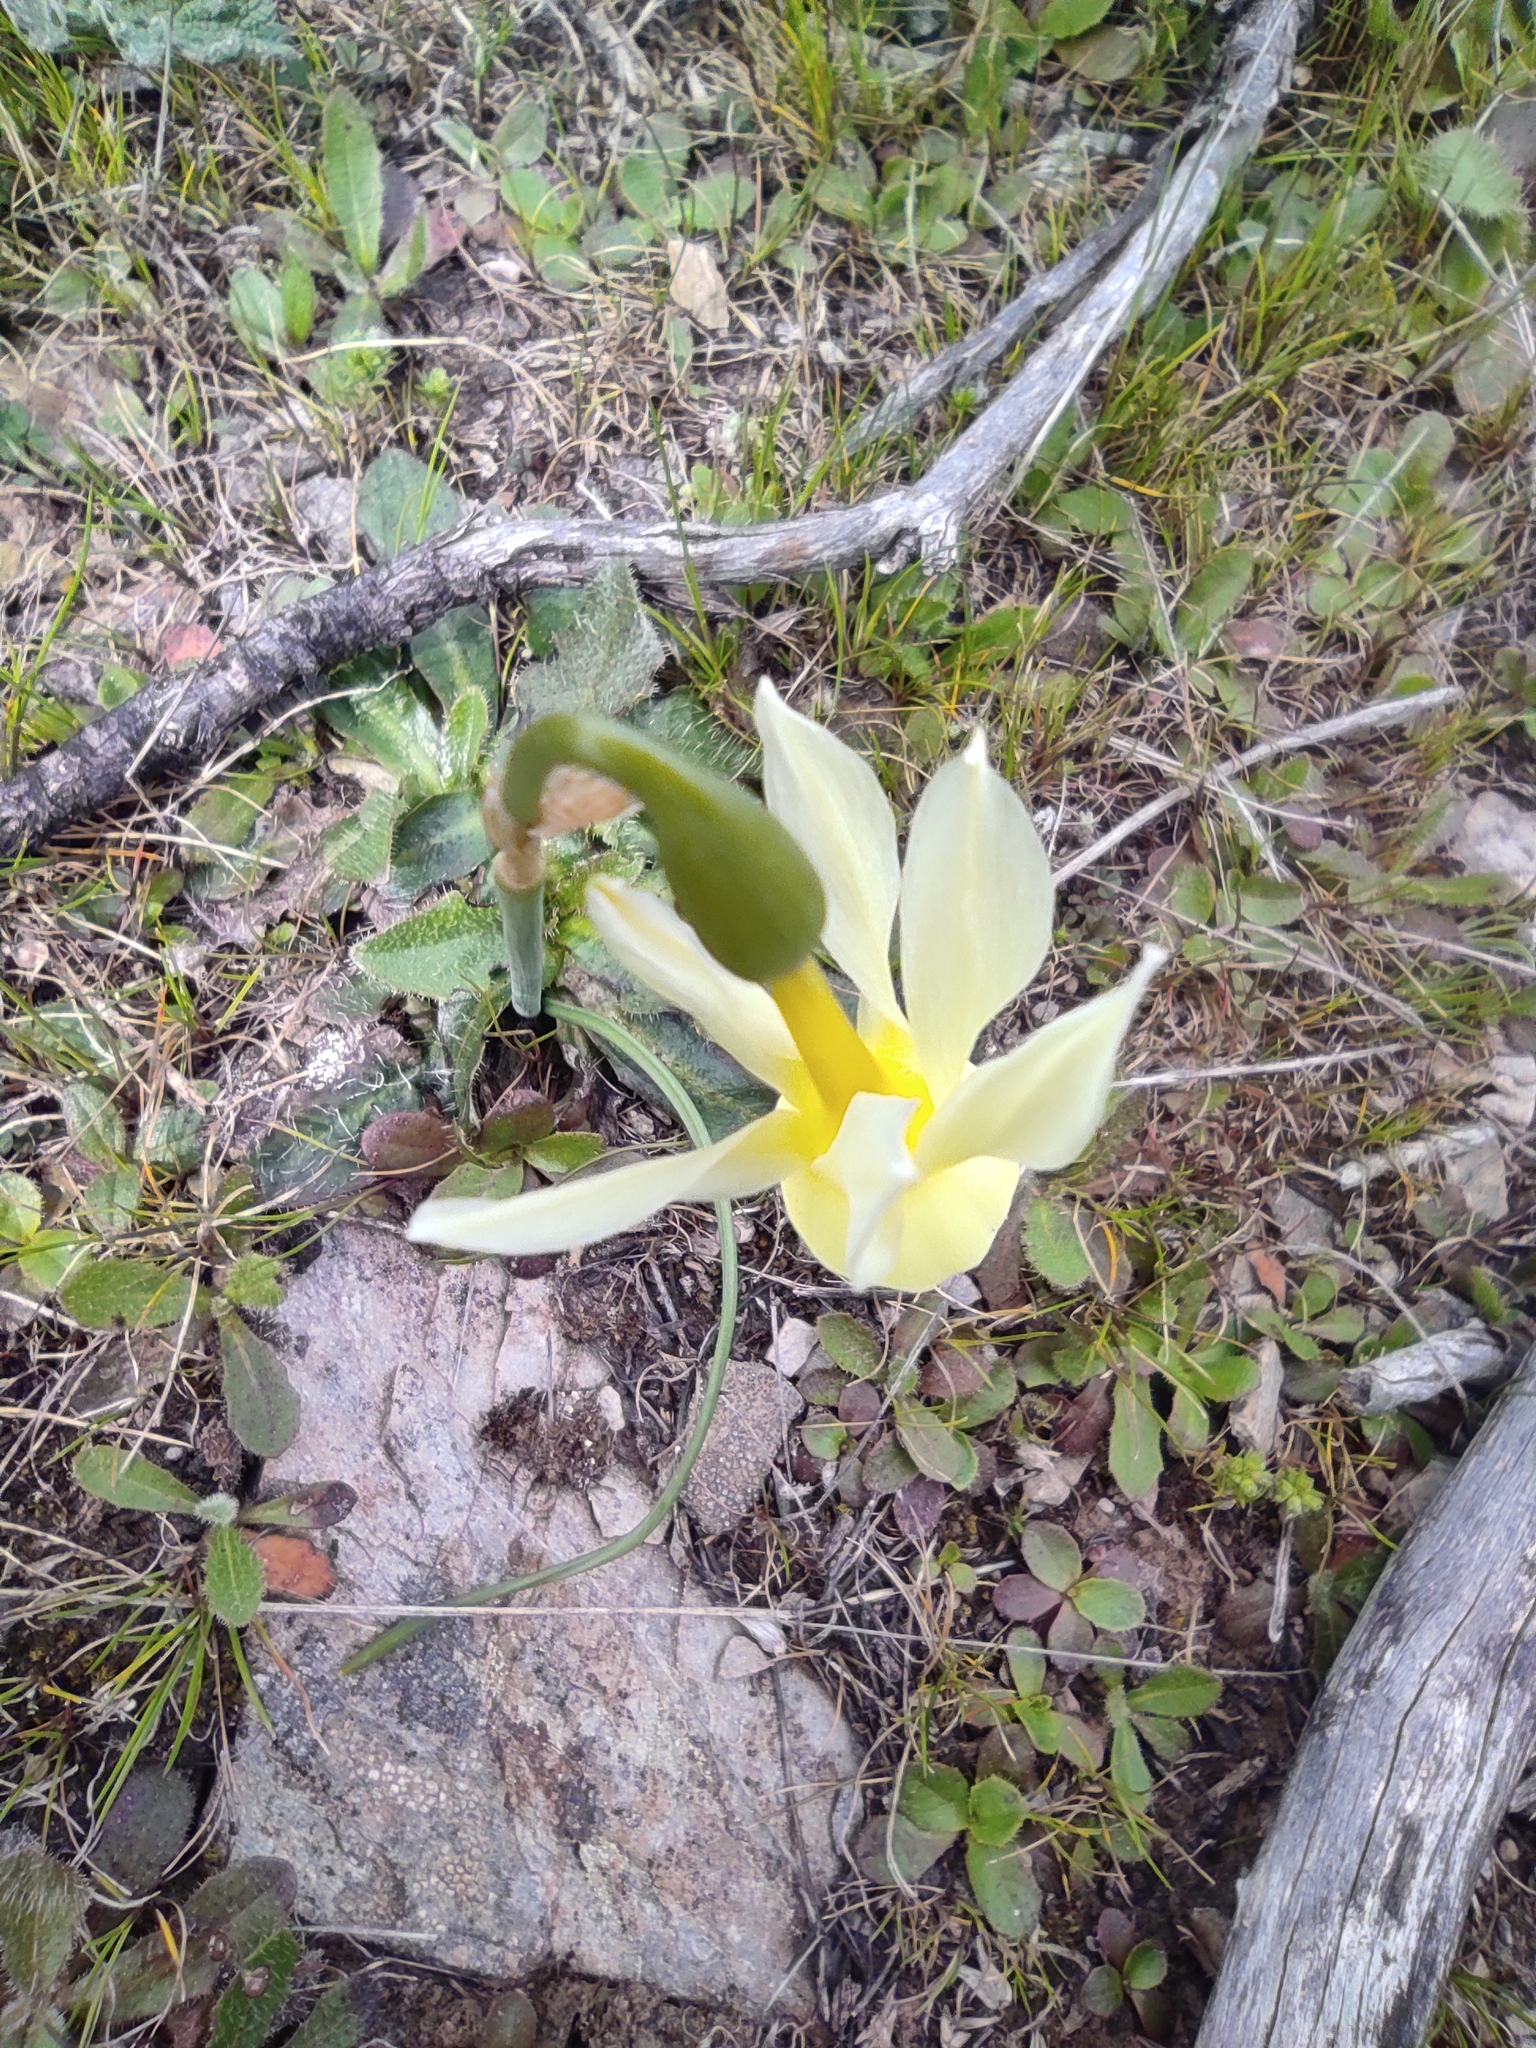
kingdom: Plantae
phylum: Tracheophyta
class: Liliopsida
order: Asparagales
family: Amaryllidaceae
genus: Narcissus
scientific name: Narcissus triandrus
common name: Angel's-tears
